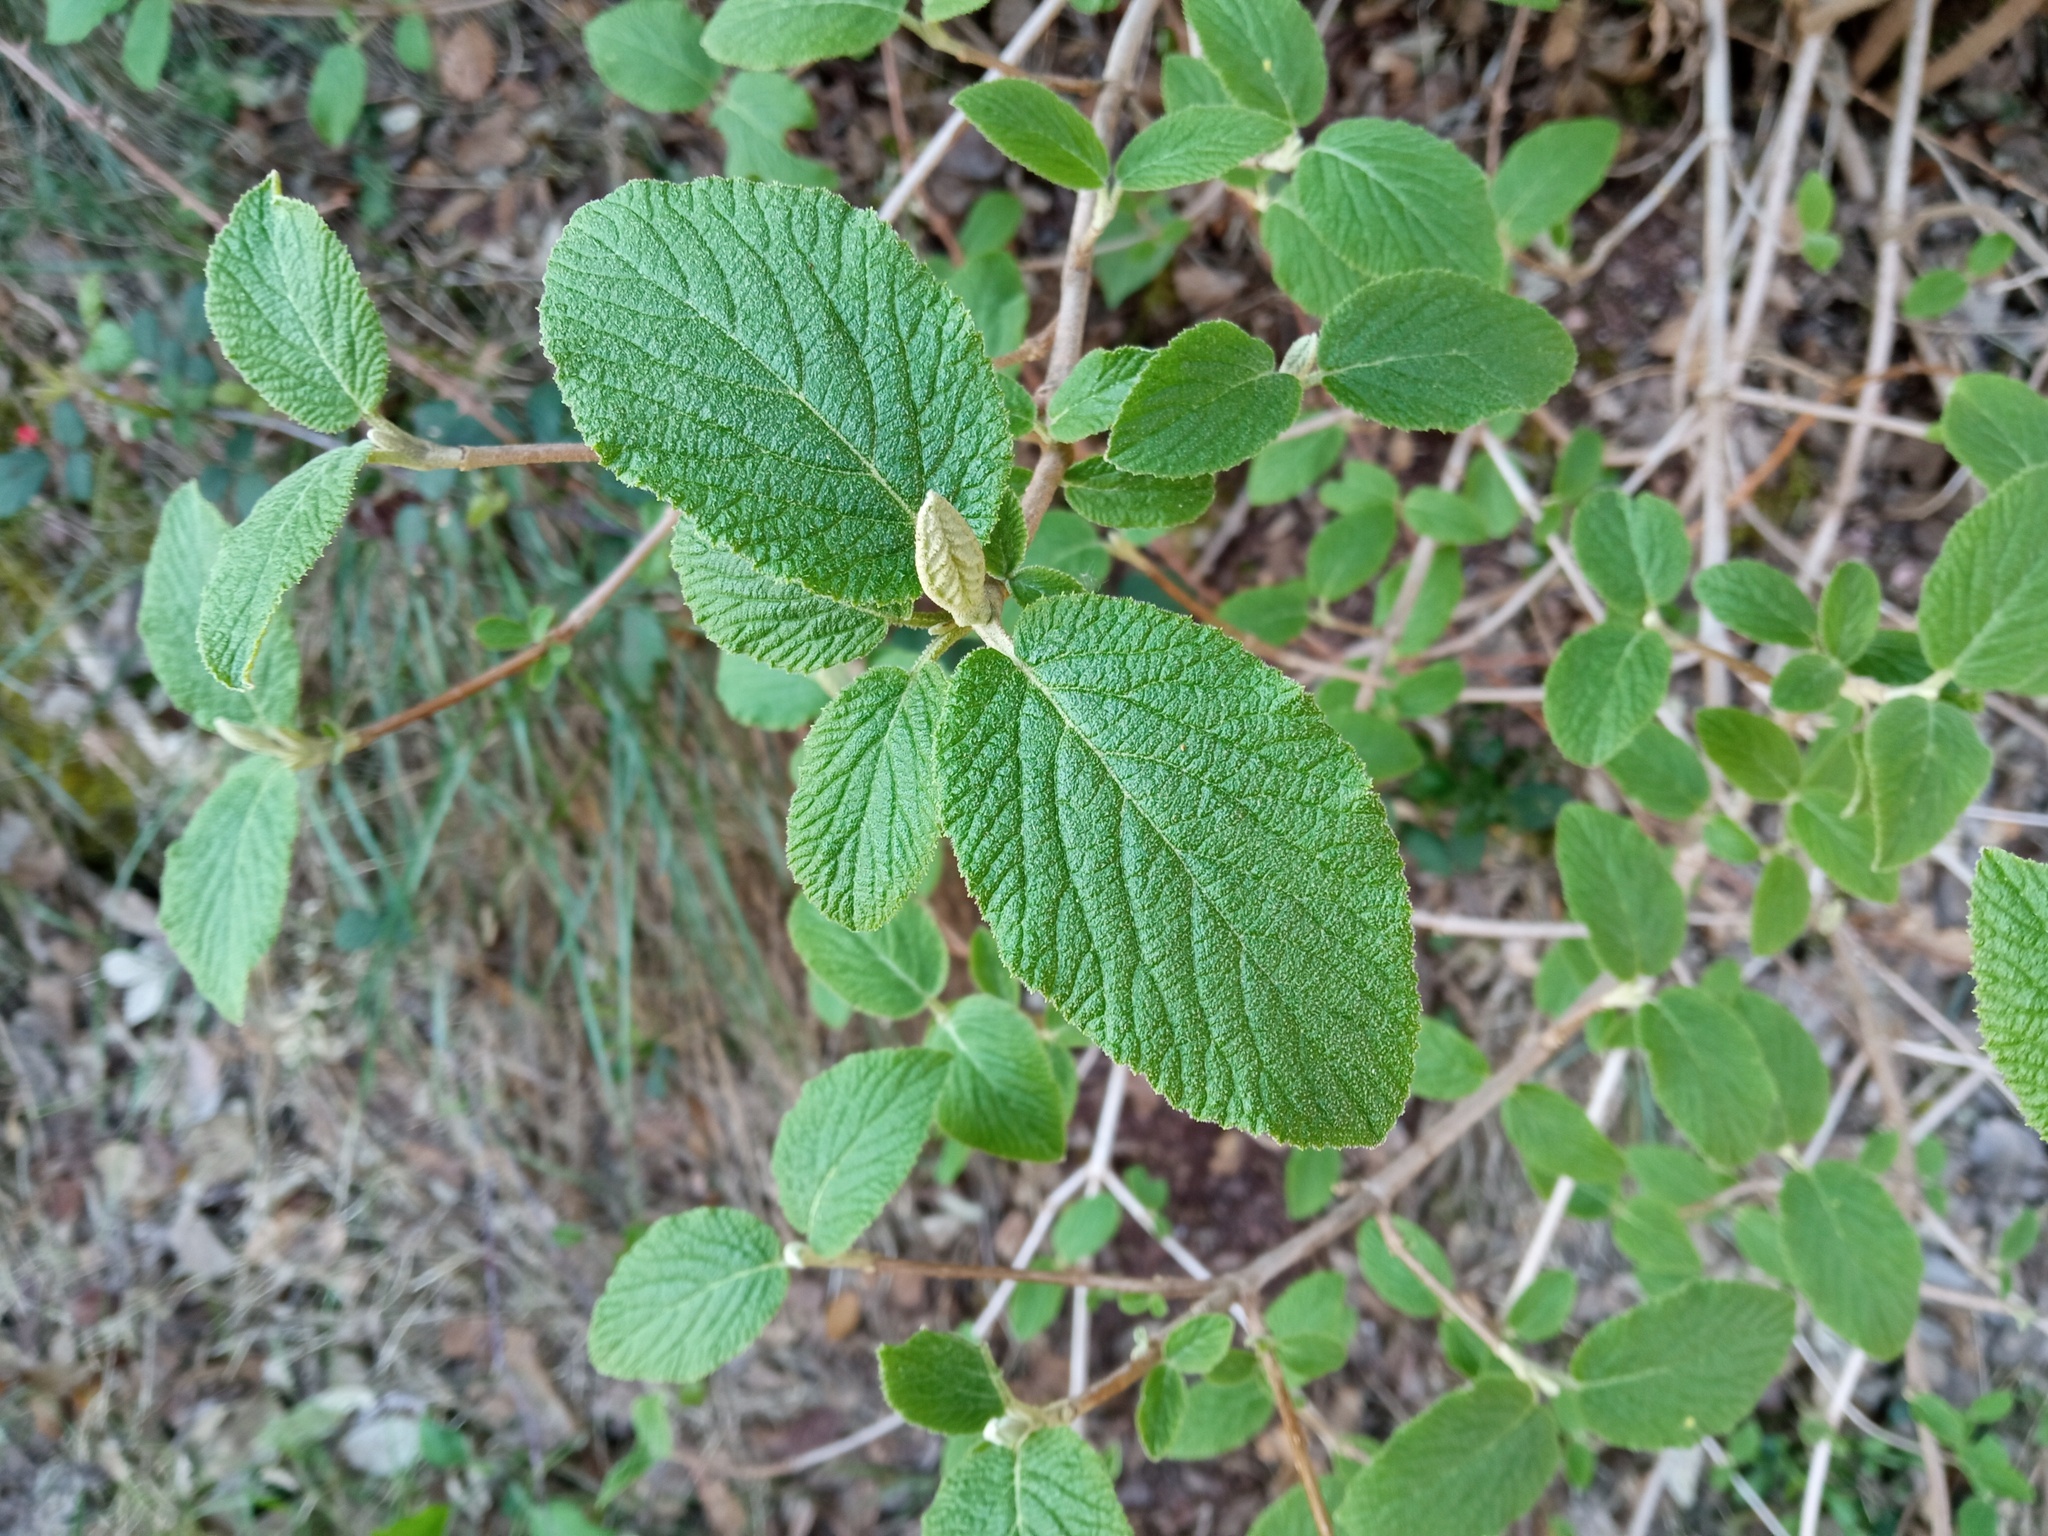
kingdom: Plantae
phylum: Tracheophyta
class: Magnoliopsida
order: Dipsacales
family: Viburnaceae
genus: Viburnum
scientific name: Viburnum lantana
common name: Wayfaring tree
